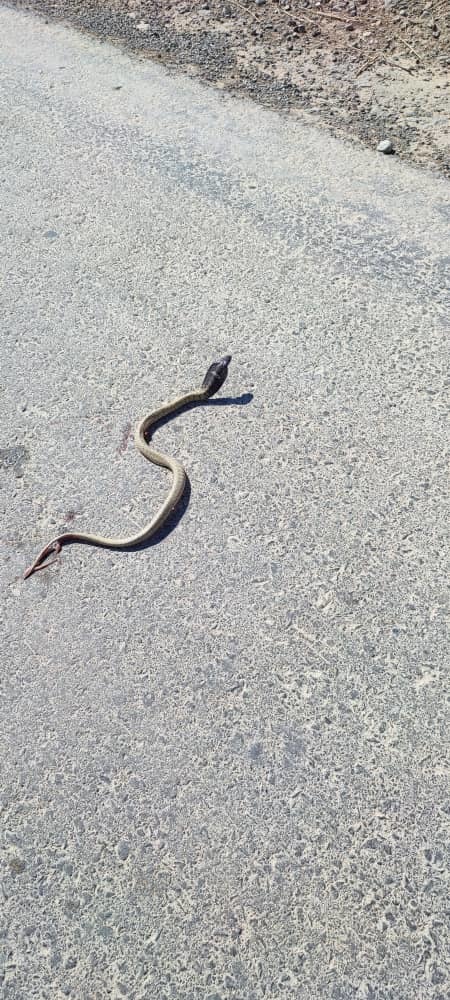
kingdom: Animalia
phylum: Chordata
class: Squamata
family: Elapidae
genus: Naja
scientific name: Naja haje
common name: Egyptian cobra
